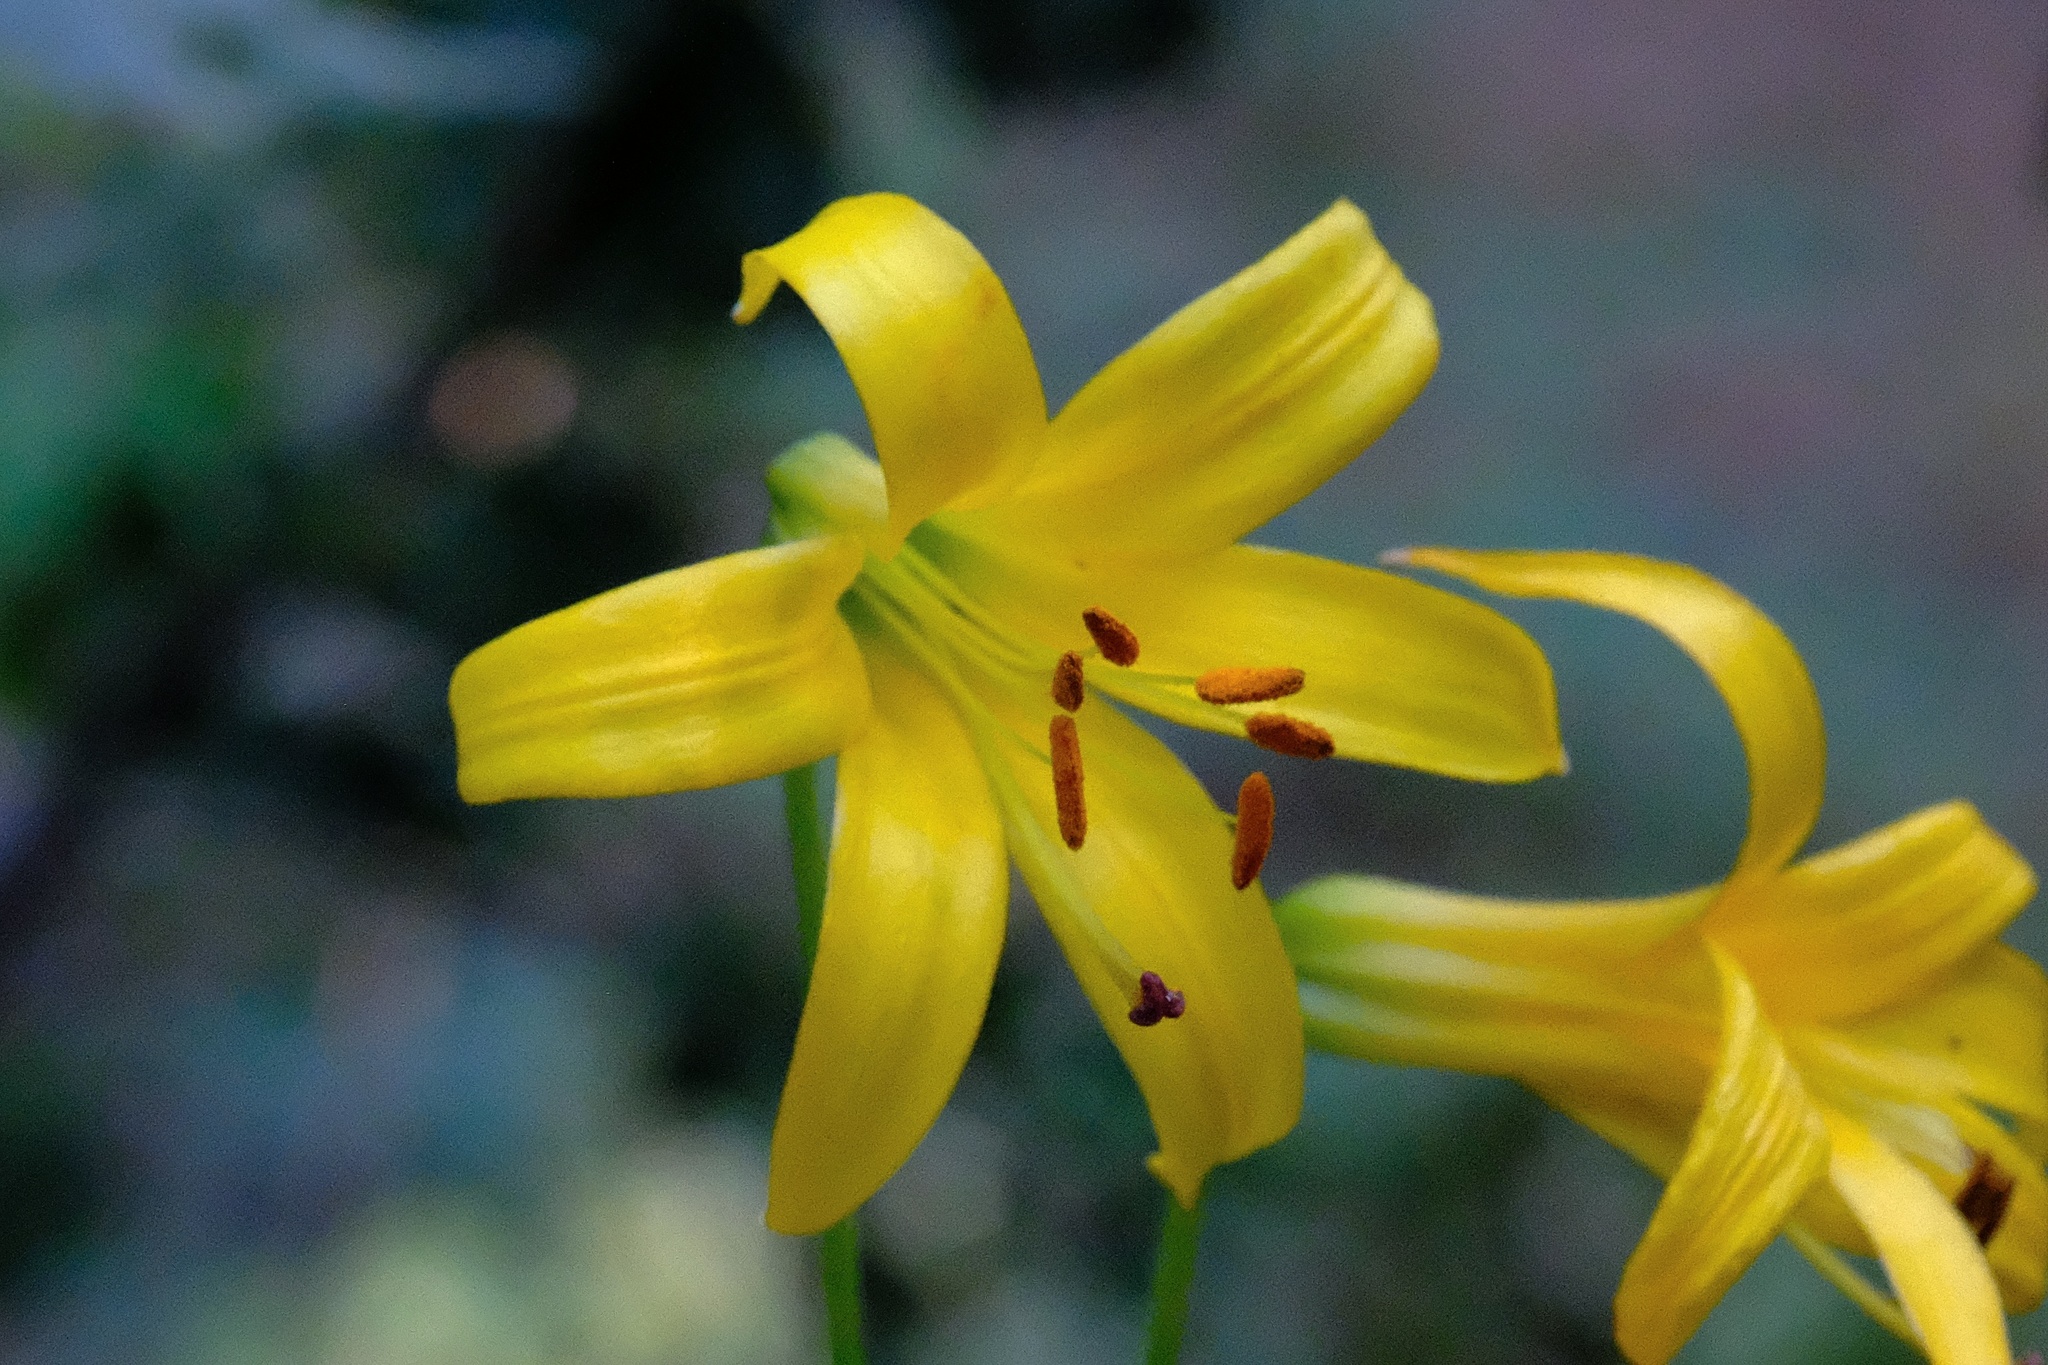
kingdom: Plantae
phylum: Tracheophyta
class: Liliopsida
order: Liliales
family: Liliaceae
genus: Lilium
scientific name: Lilium parryi
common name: Lemon lily
